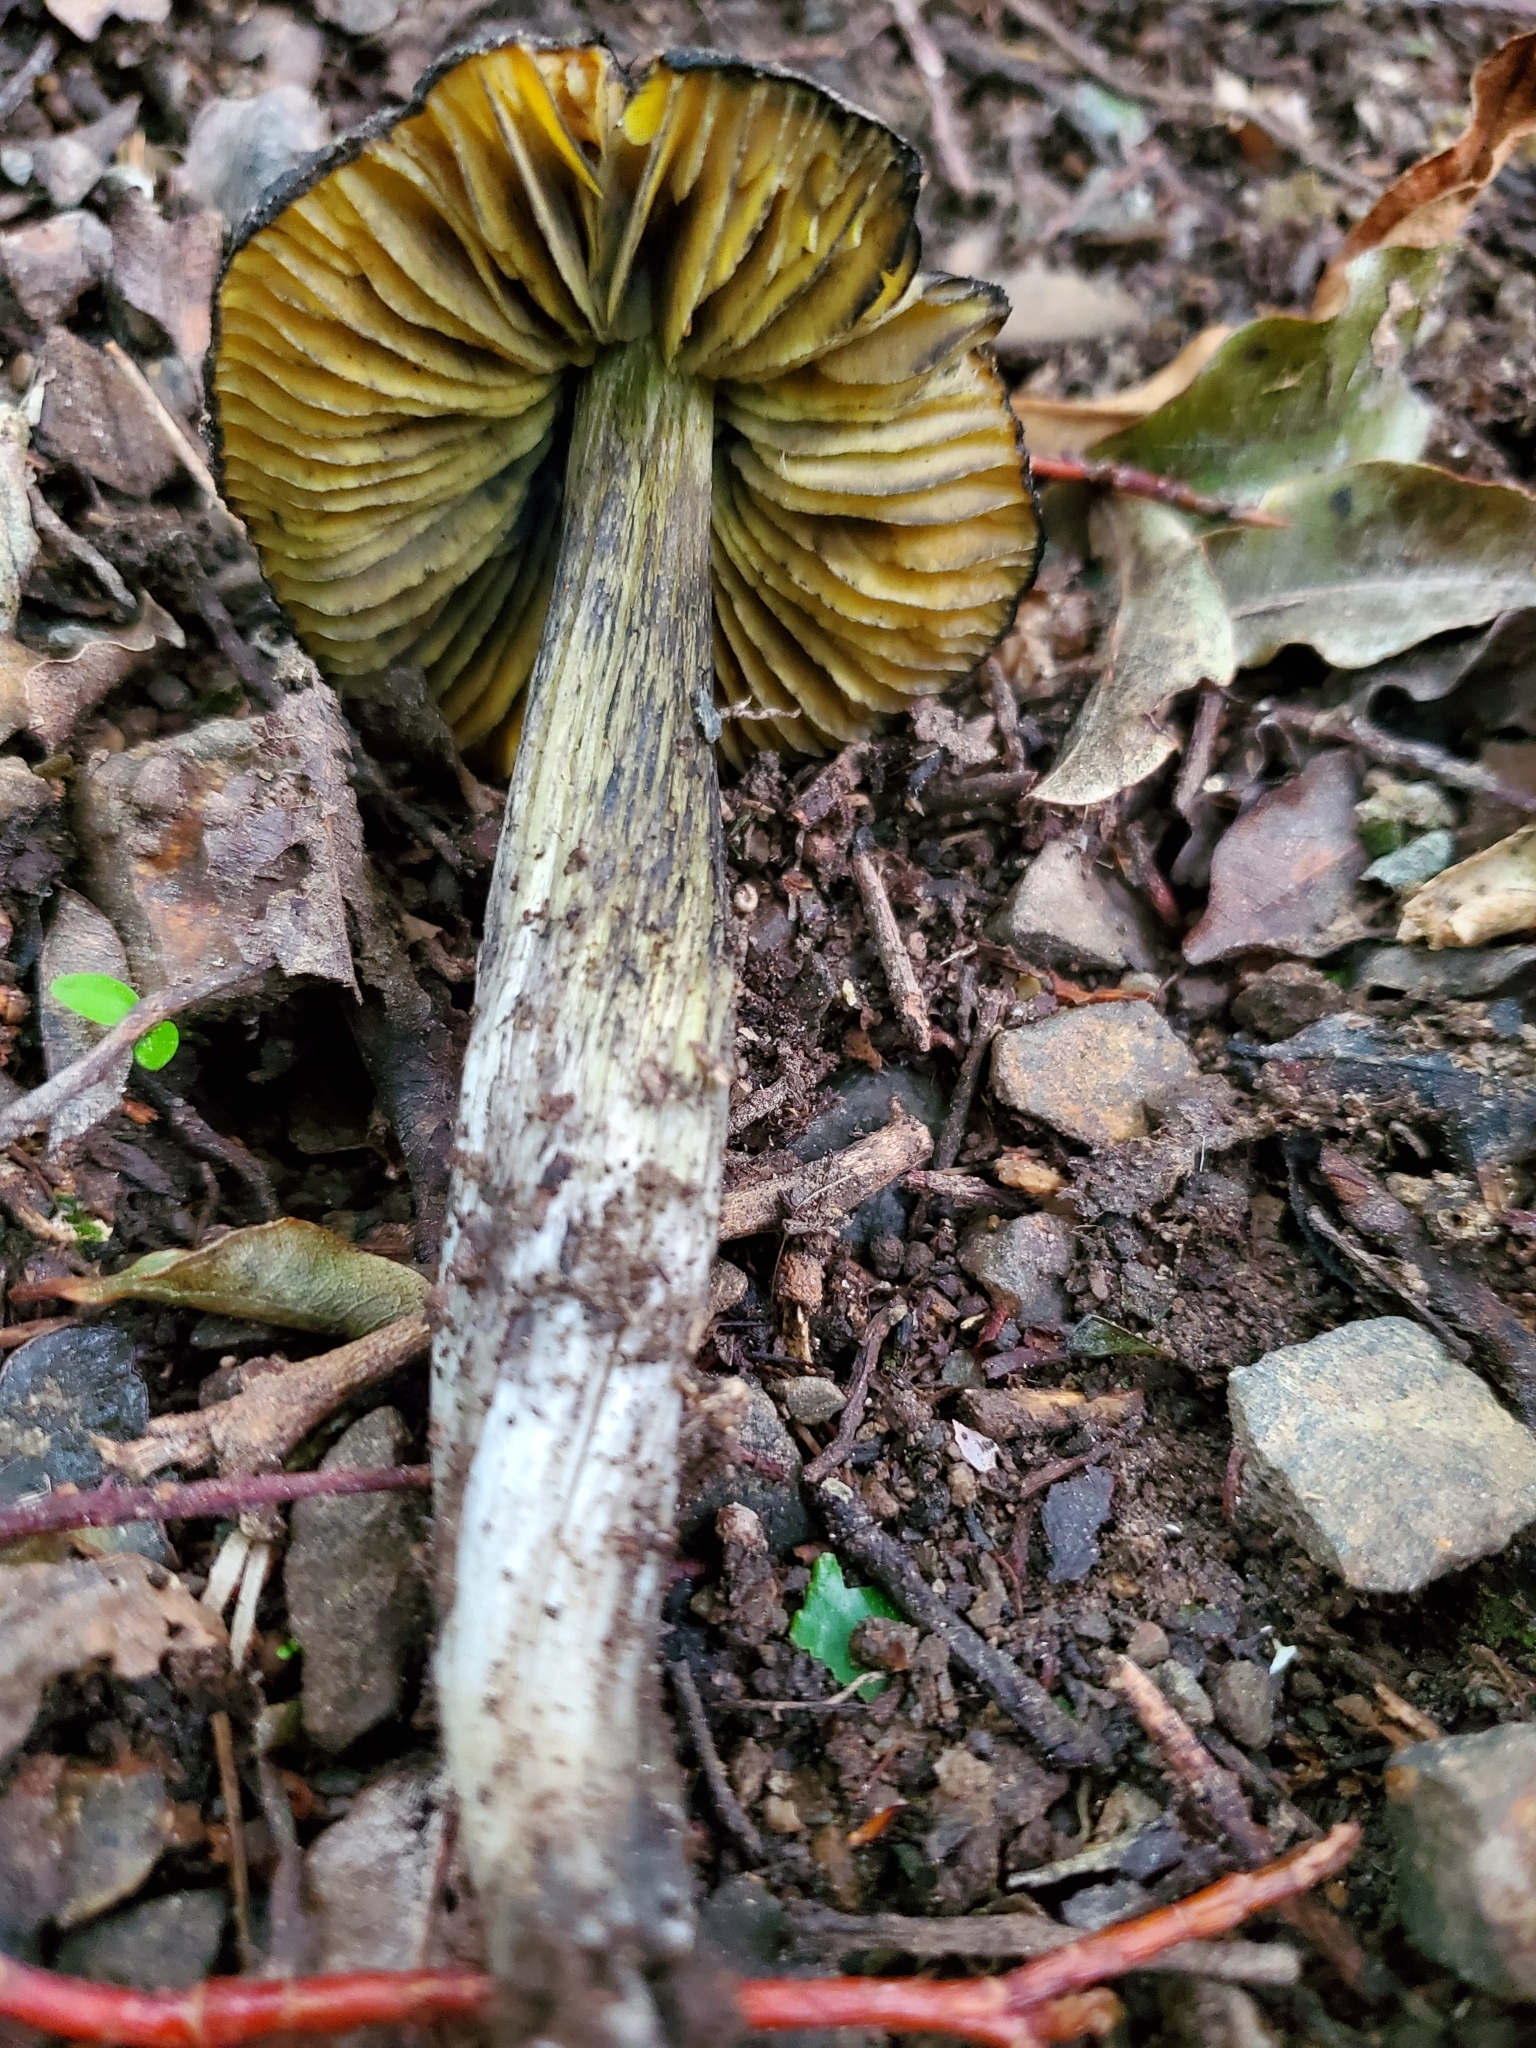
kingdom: Fungi
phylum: Basidiomycota
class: Agaricomycetes
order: Agaricales
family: Hygrophoraceae
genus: Hygrocybe
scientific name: Hygrocybe astatogala
